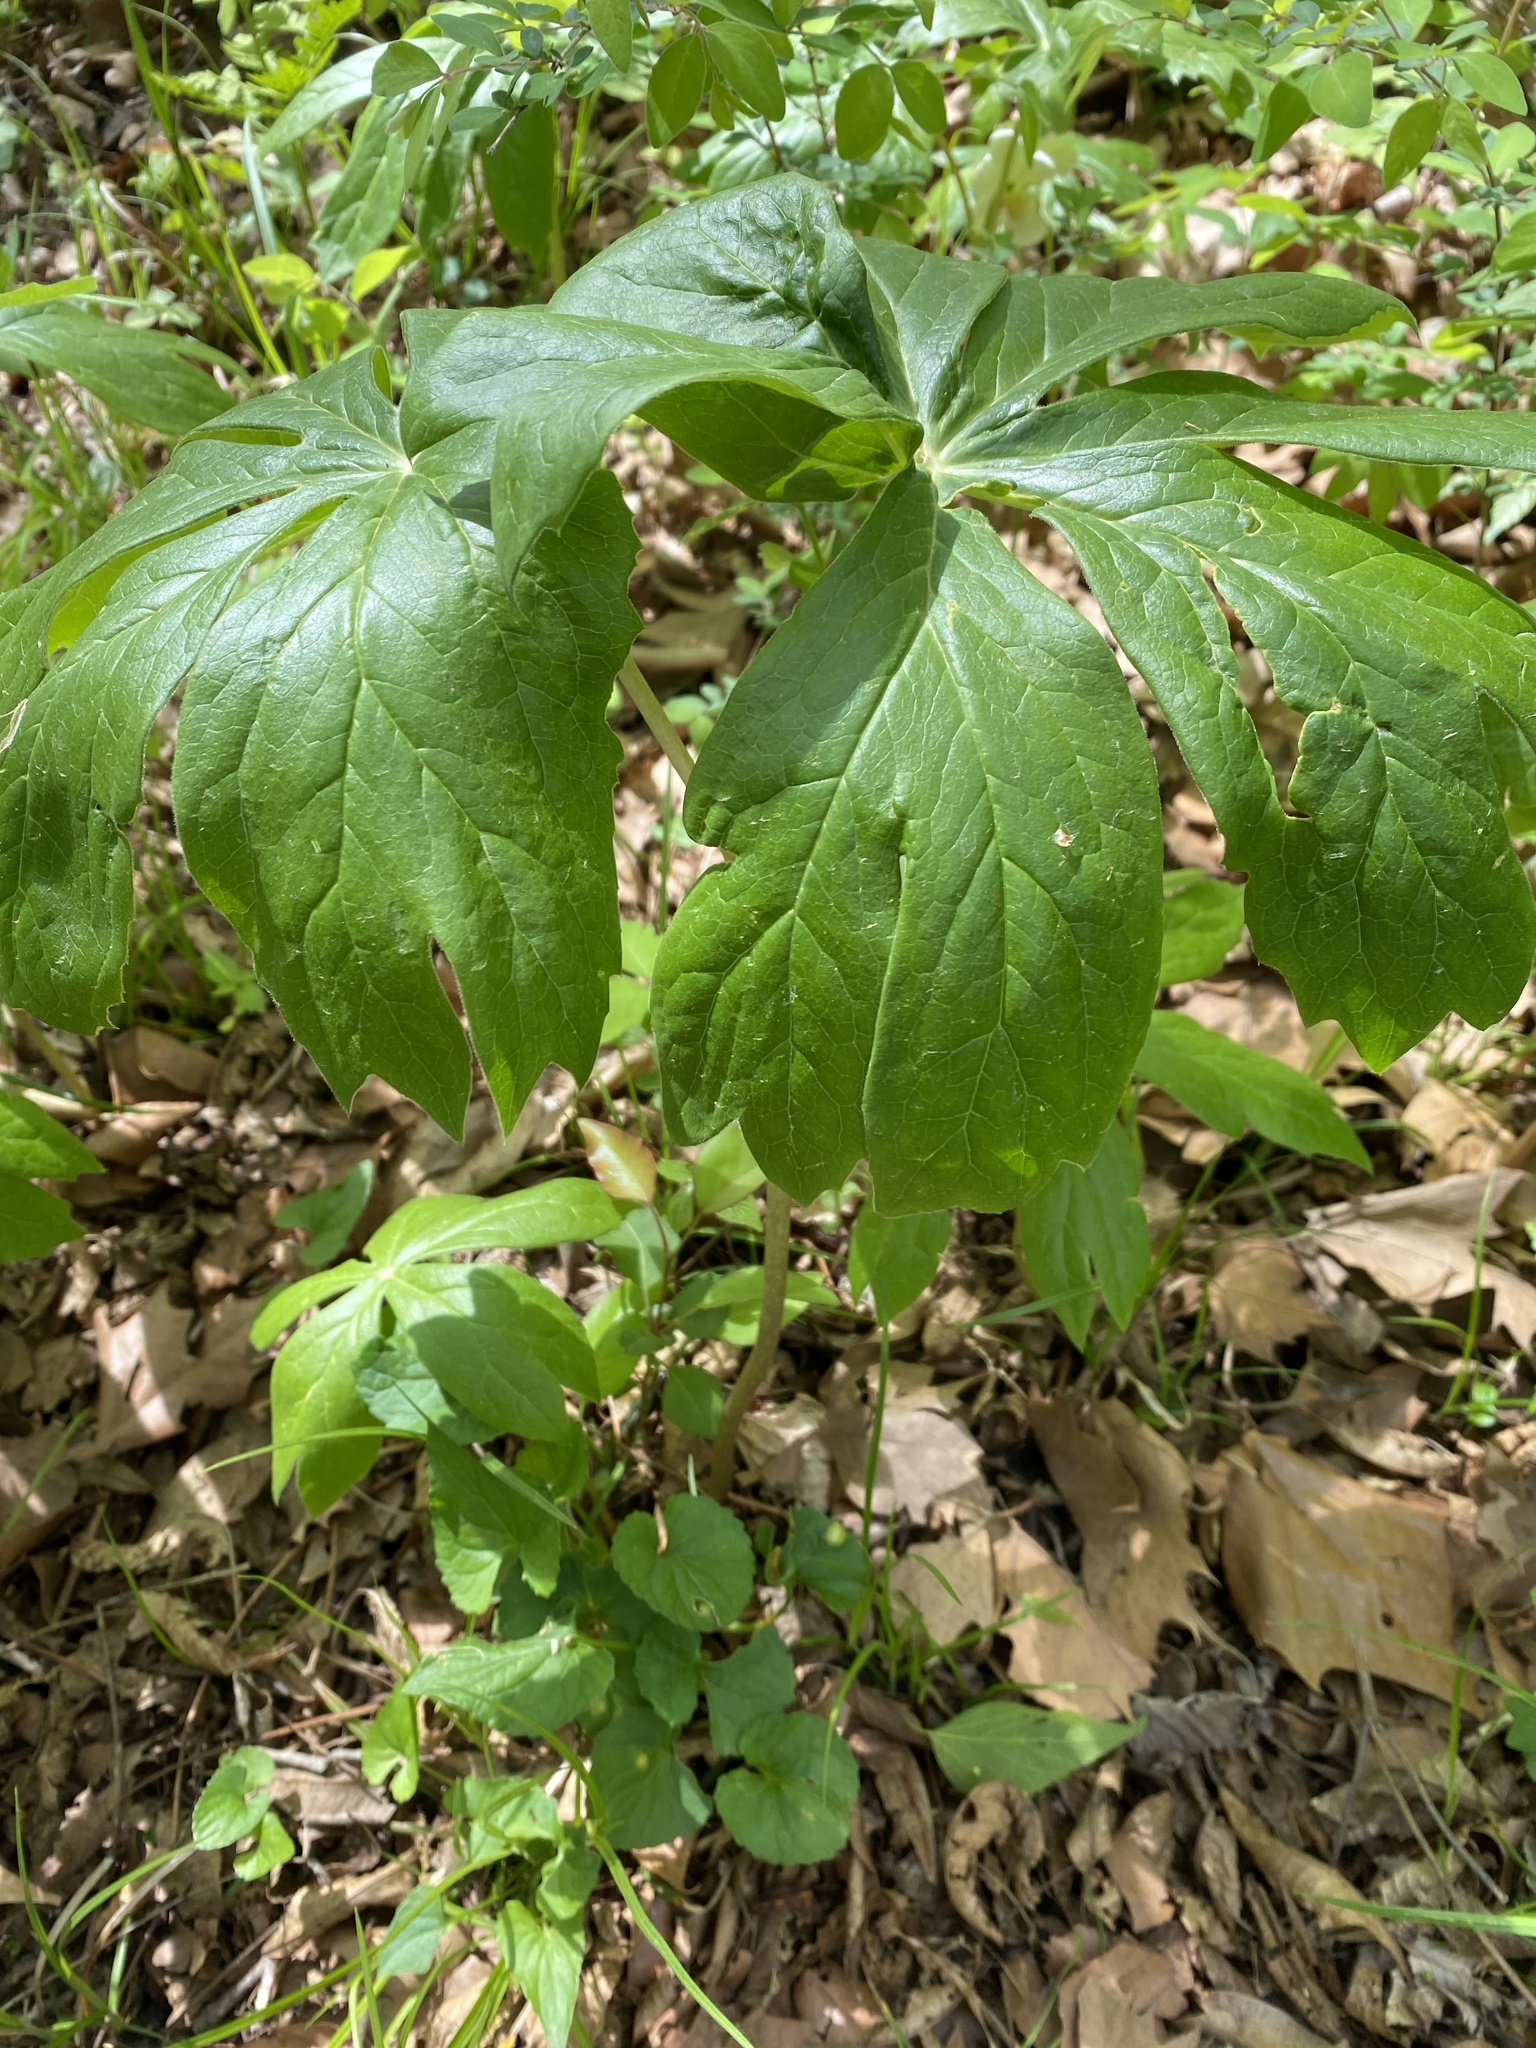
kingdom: Plantae
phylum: Tracheophyta
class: Magnoliopsida
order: Ranunculales
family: Berberidaceae
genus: Podophyllum
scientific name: Podophyllum peltatum
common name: Wild mandrake
